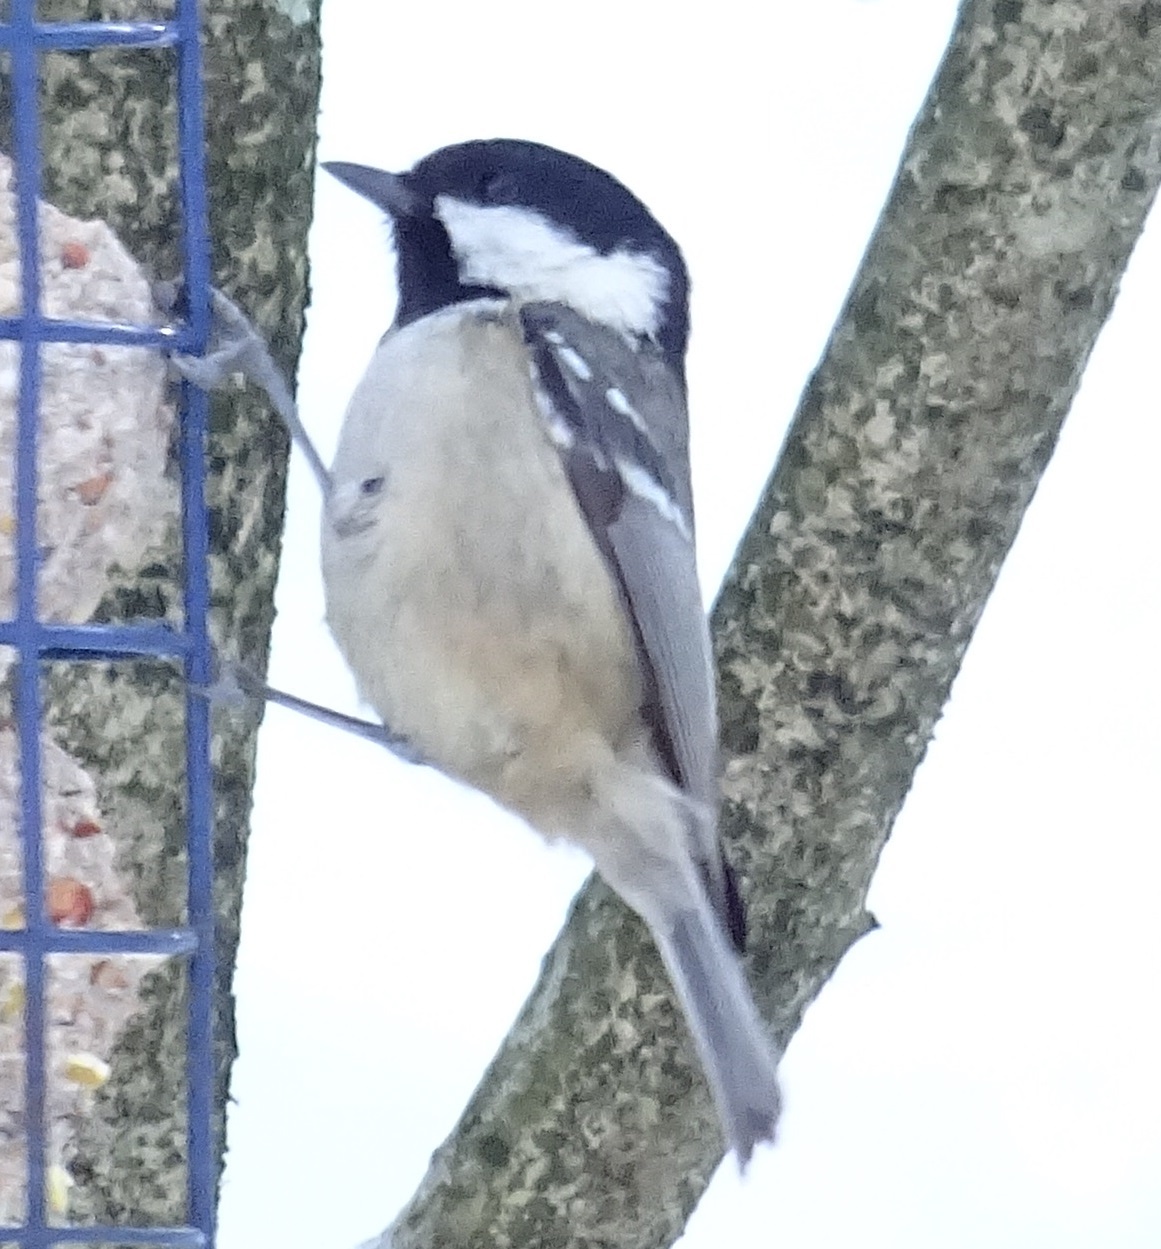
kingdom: Animalia
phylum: Chordata
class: Aves
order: Passeriformes
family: Paridae
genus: Periparus
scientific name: Periparus ater
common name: Coal tit
